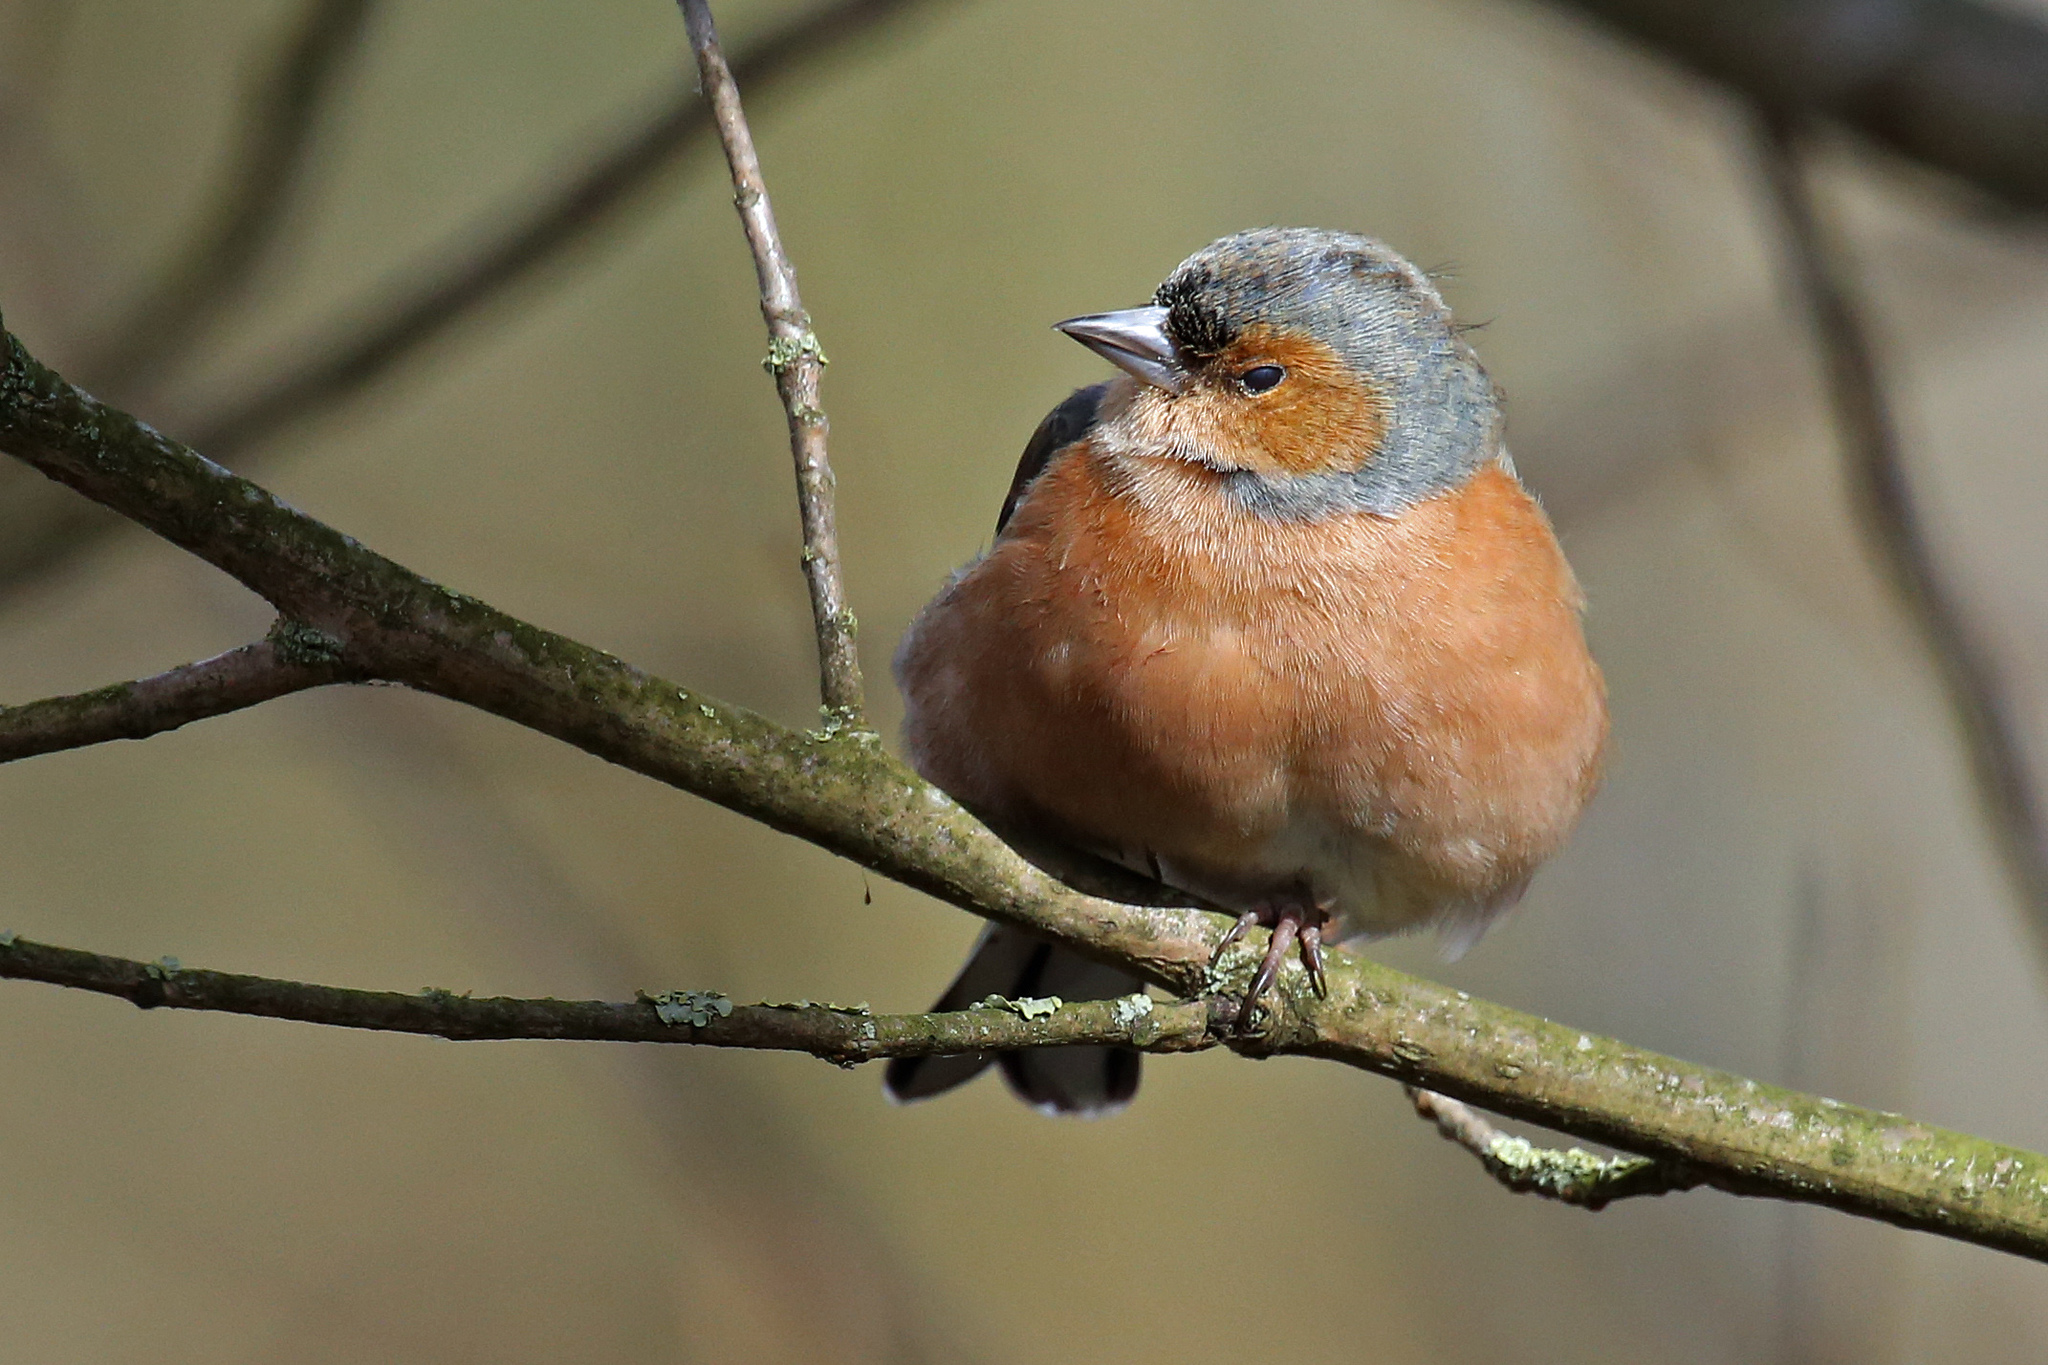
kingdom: Animalia
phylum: Chordata
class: Aves
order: Passeriformes
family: Fringillidae
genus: Fringilla
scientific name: Fringilla coelebs
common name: Common chaffinch
